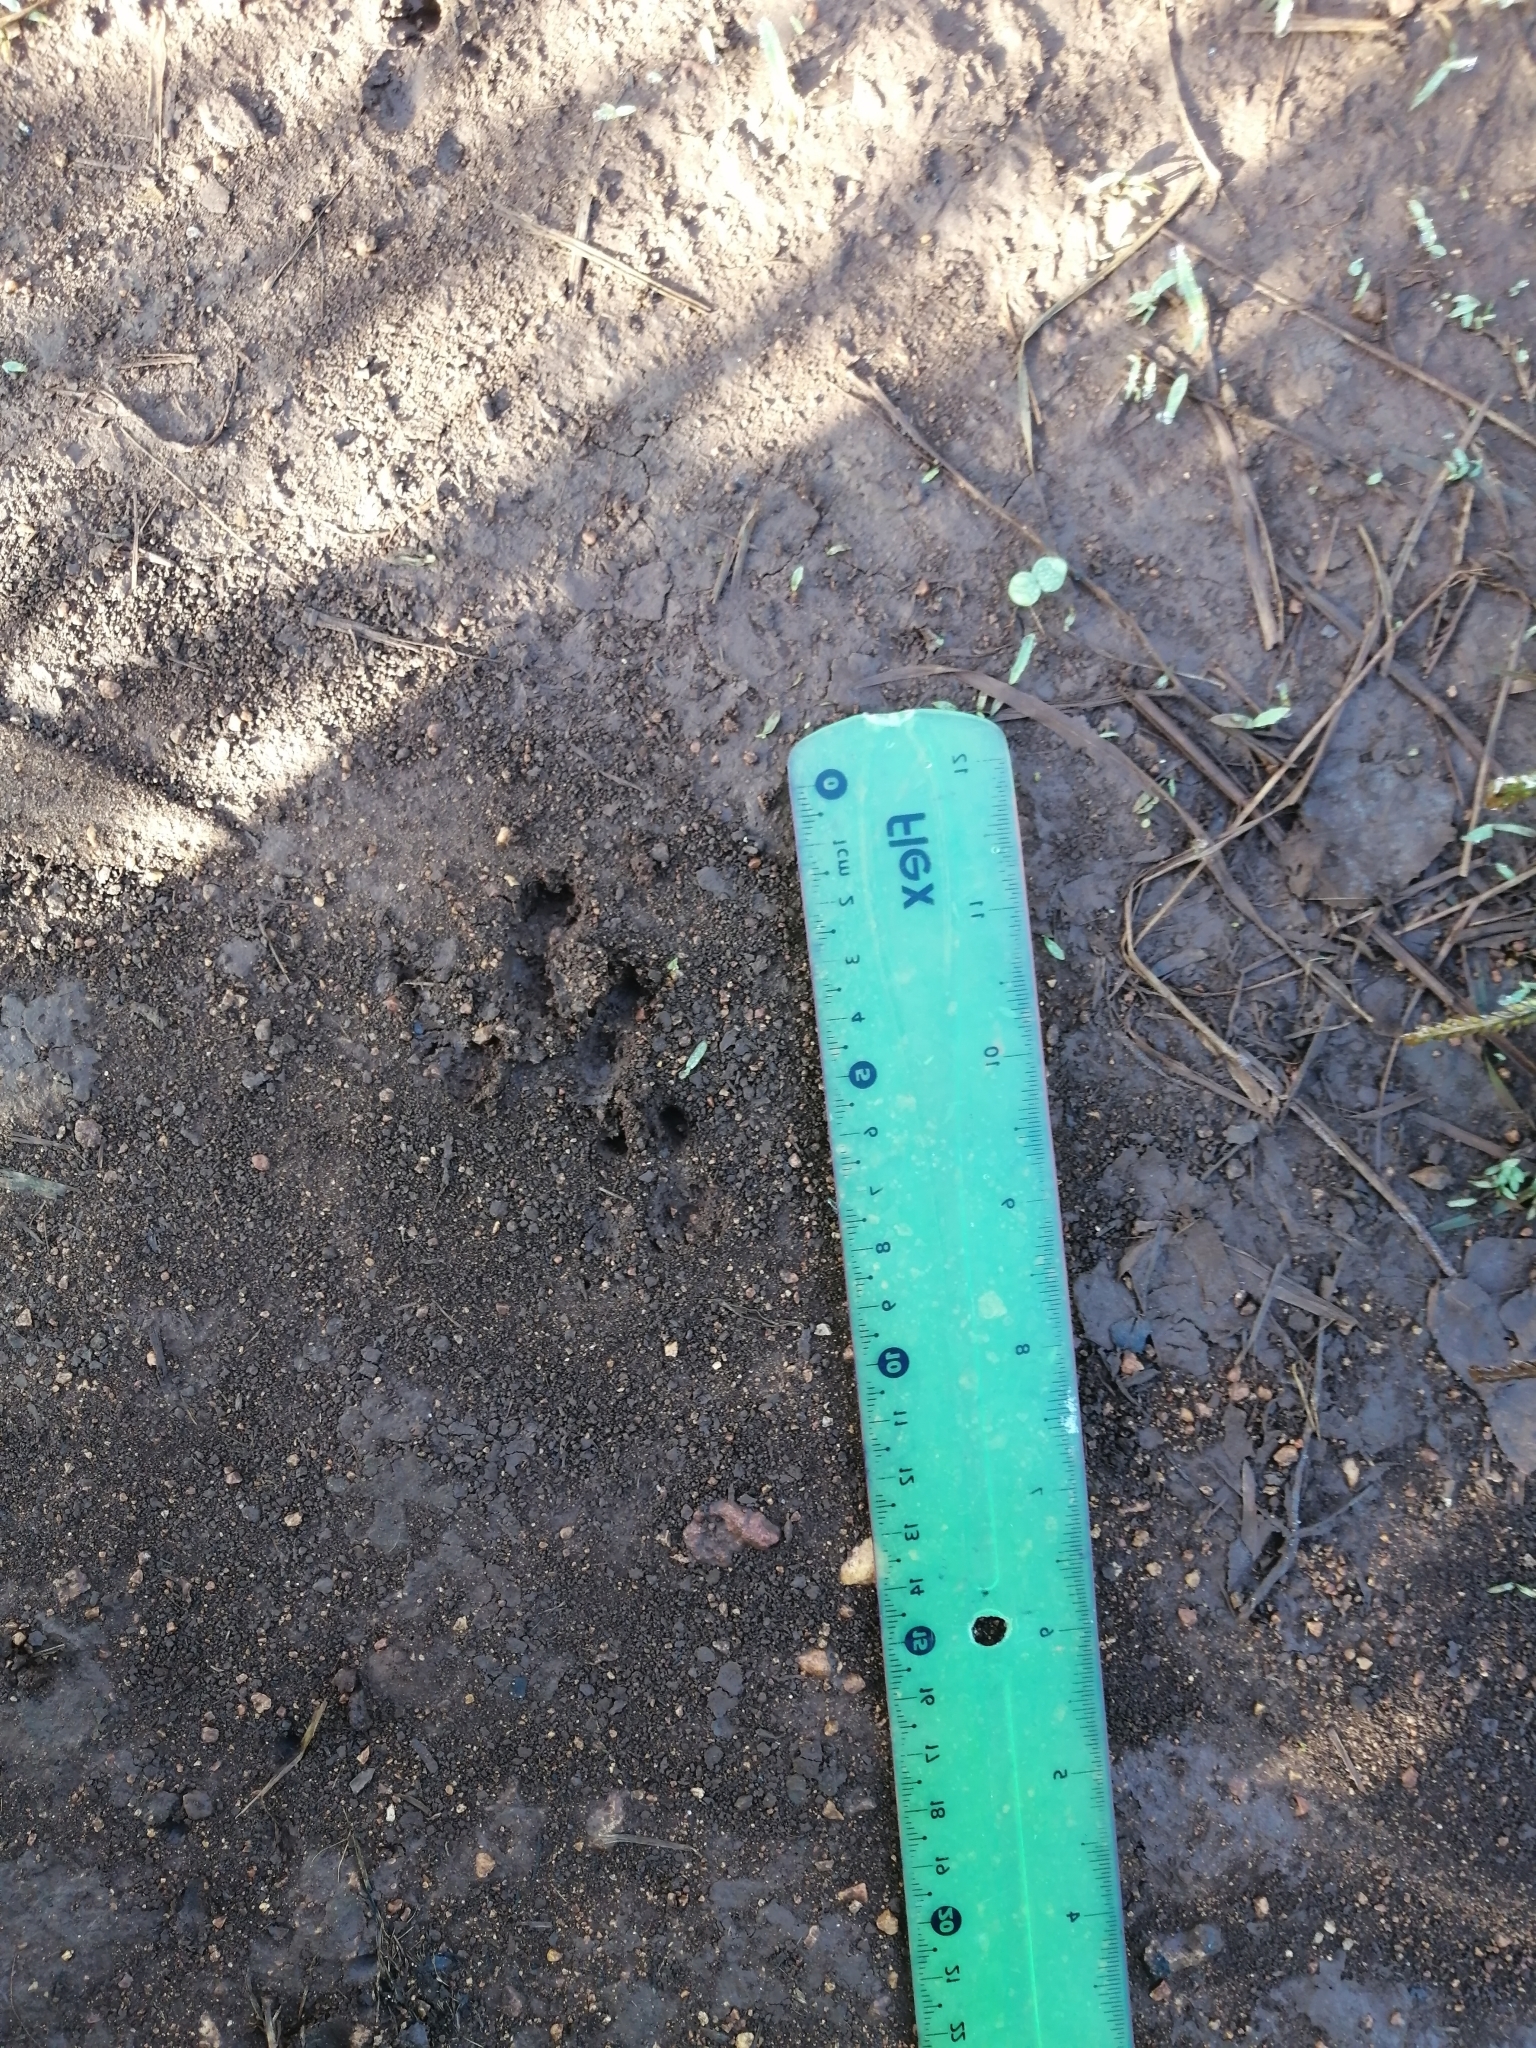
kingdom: Animalia
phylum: Chordata
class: Mammalia
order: Cingulata
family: Dasypodidae
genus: Dasypus
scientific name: Dasypus novemcinctus
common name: Nine-banded armadillo
